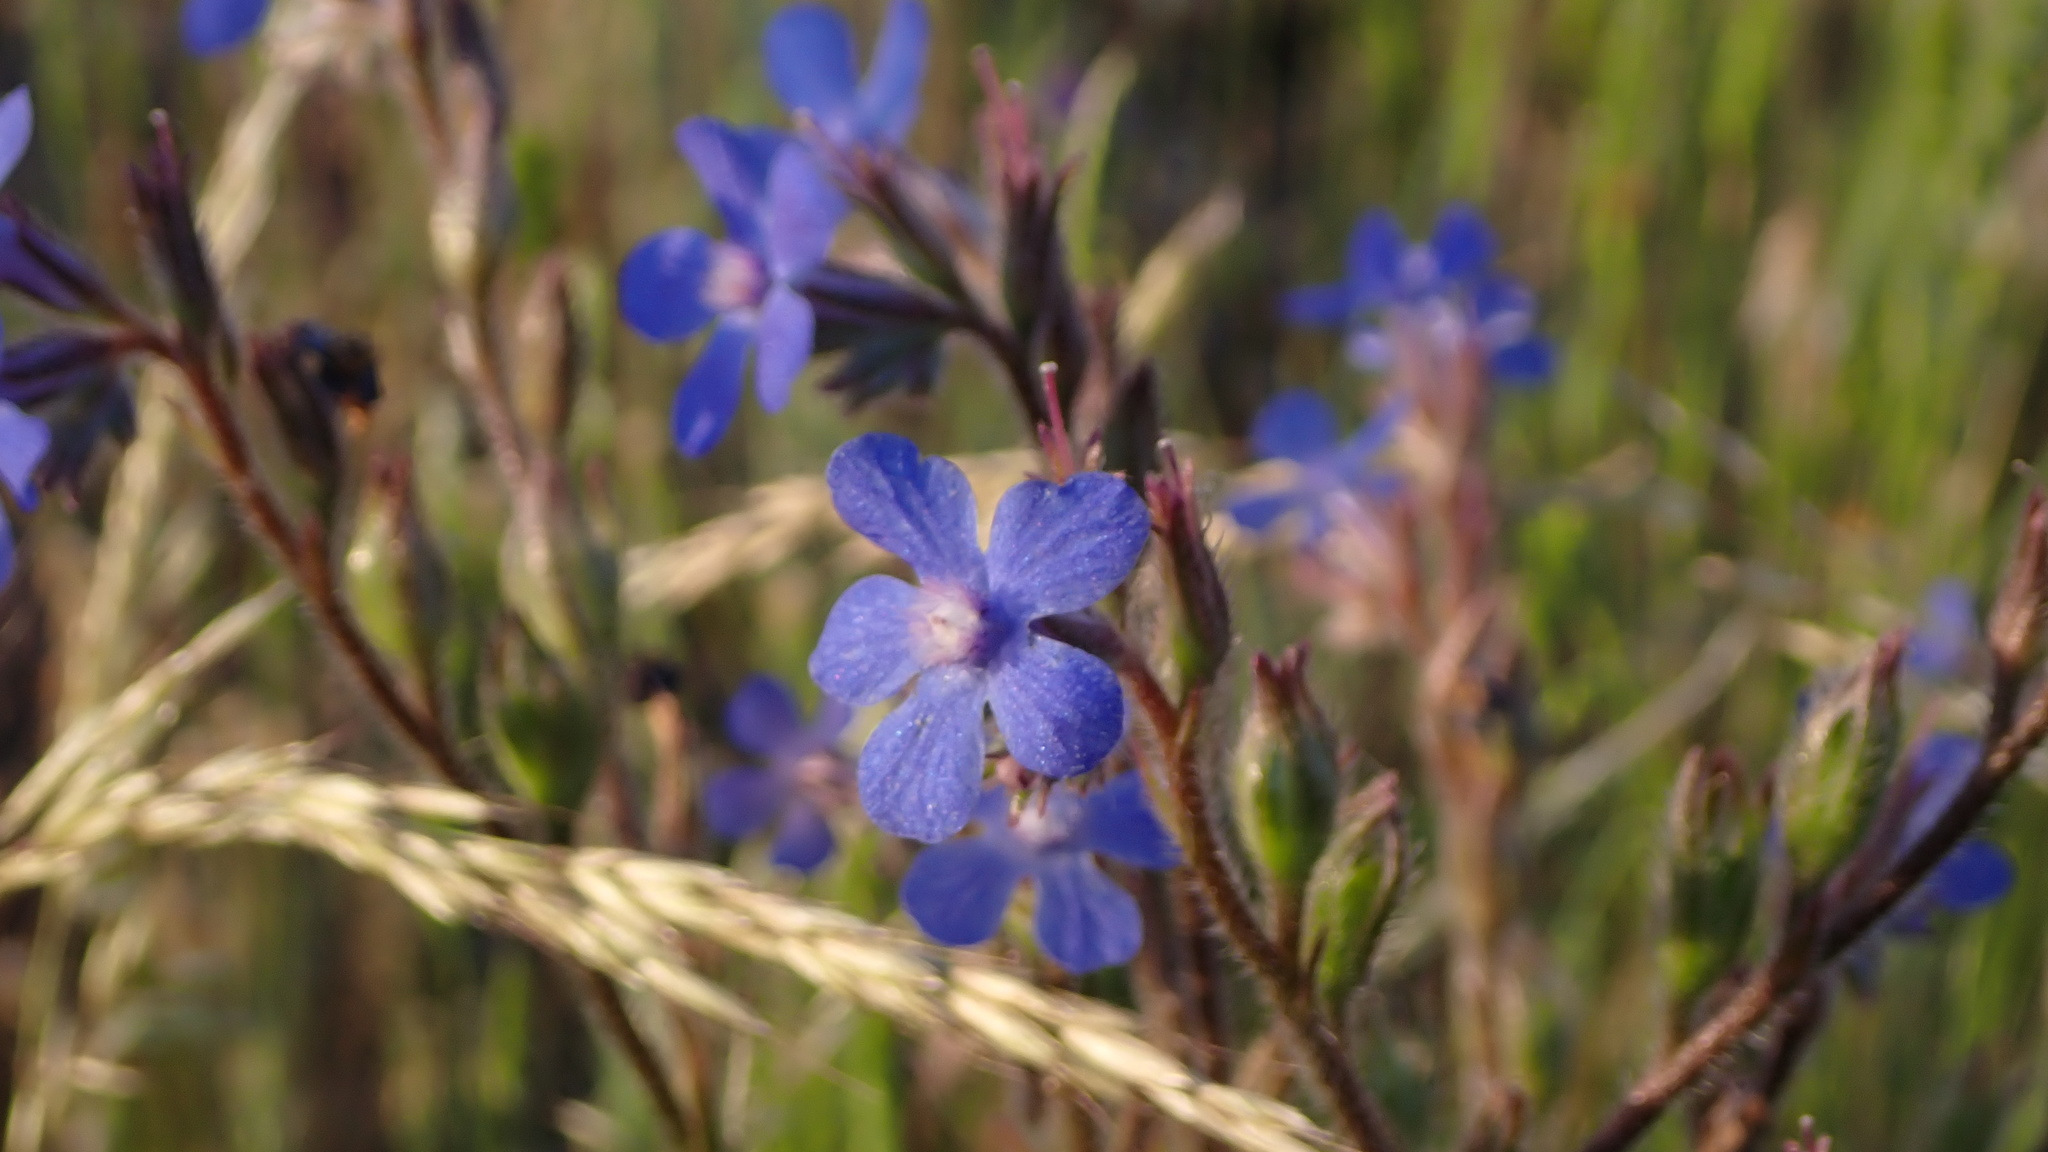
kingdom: Plantae
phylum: Tracheophyta
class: Magnoliopsida
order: Boraginales
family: Boraginaceae
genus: Anchusa
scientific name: Anchusa azurea
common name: Garden anchusa
